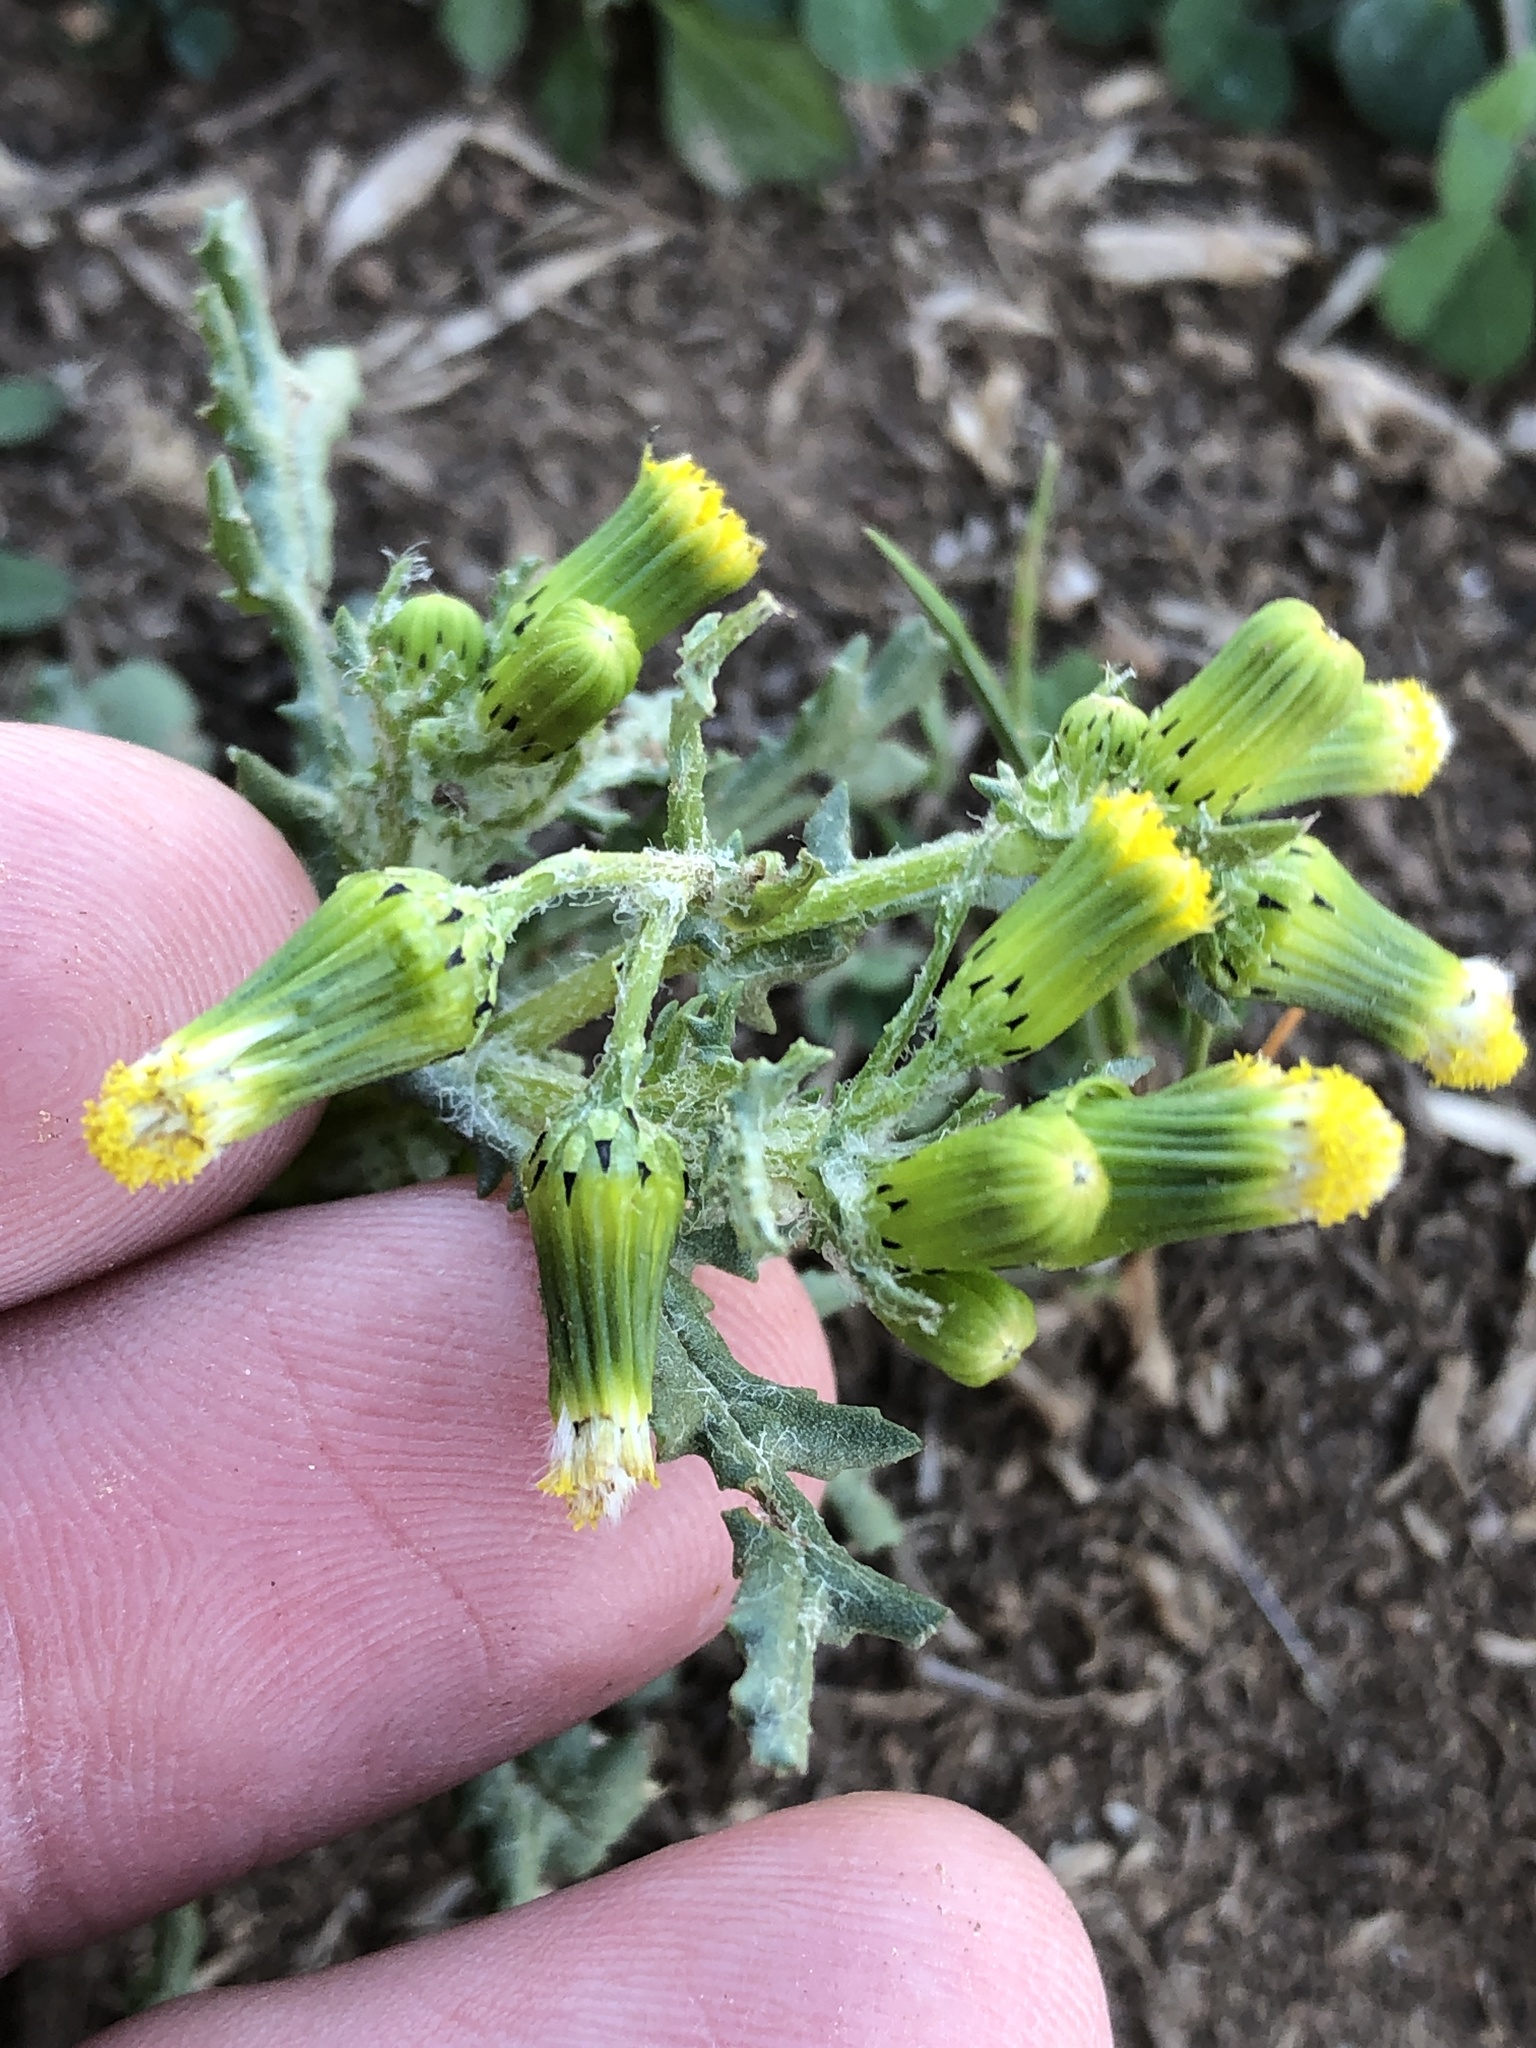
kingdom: Plantae
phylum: Tracheophyta
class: Magnoliopsida
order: Asterales
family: Asteraceae
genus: Senecio
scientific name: Senecio vulgaris
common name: Old-man-in-the-spring
